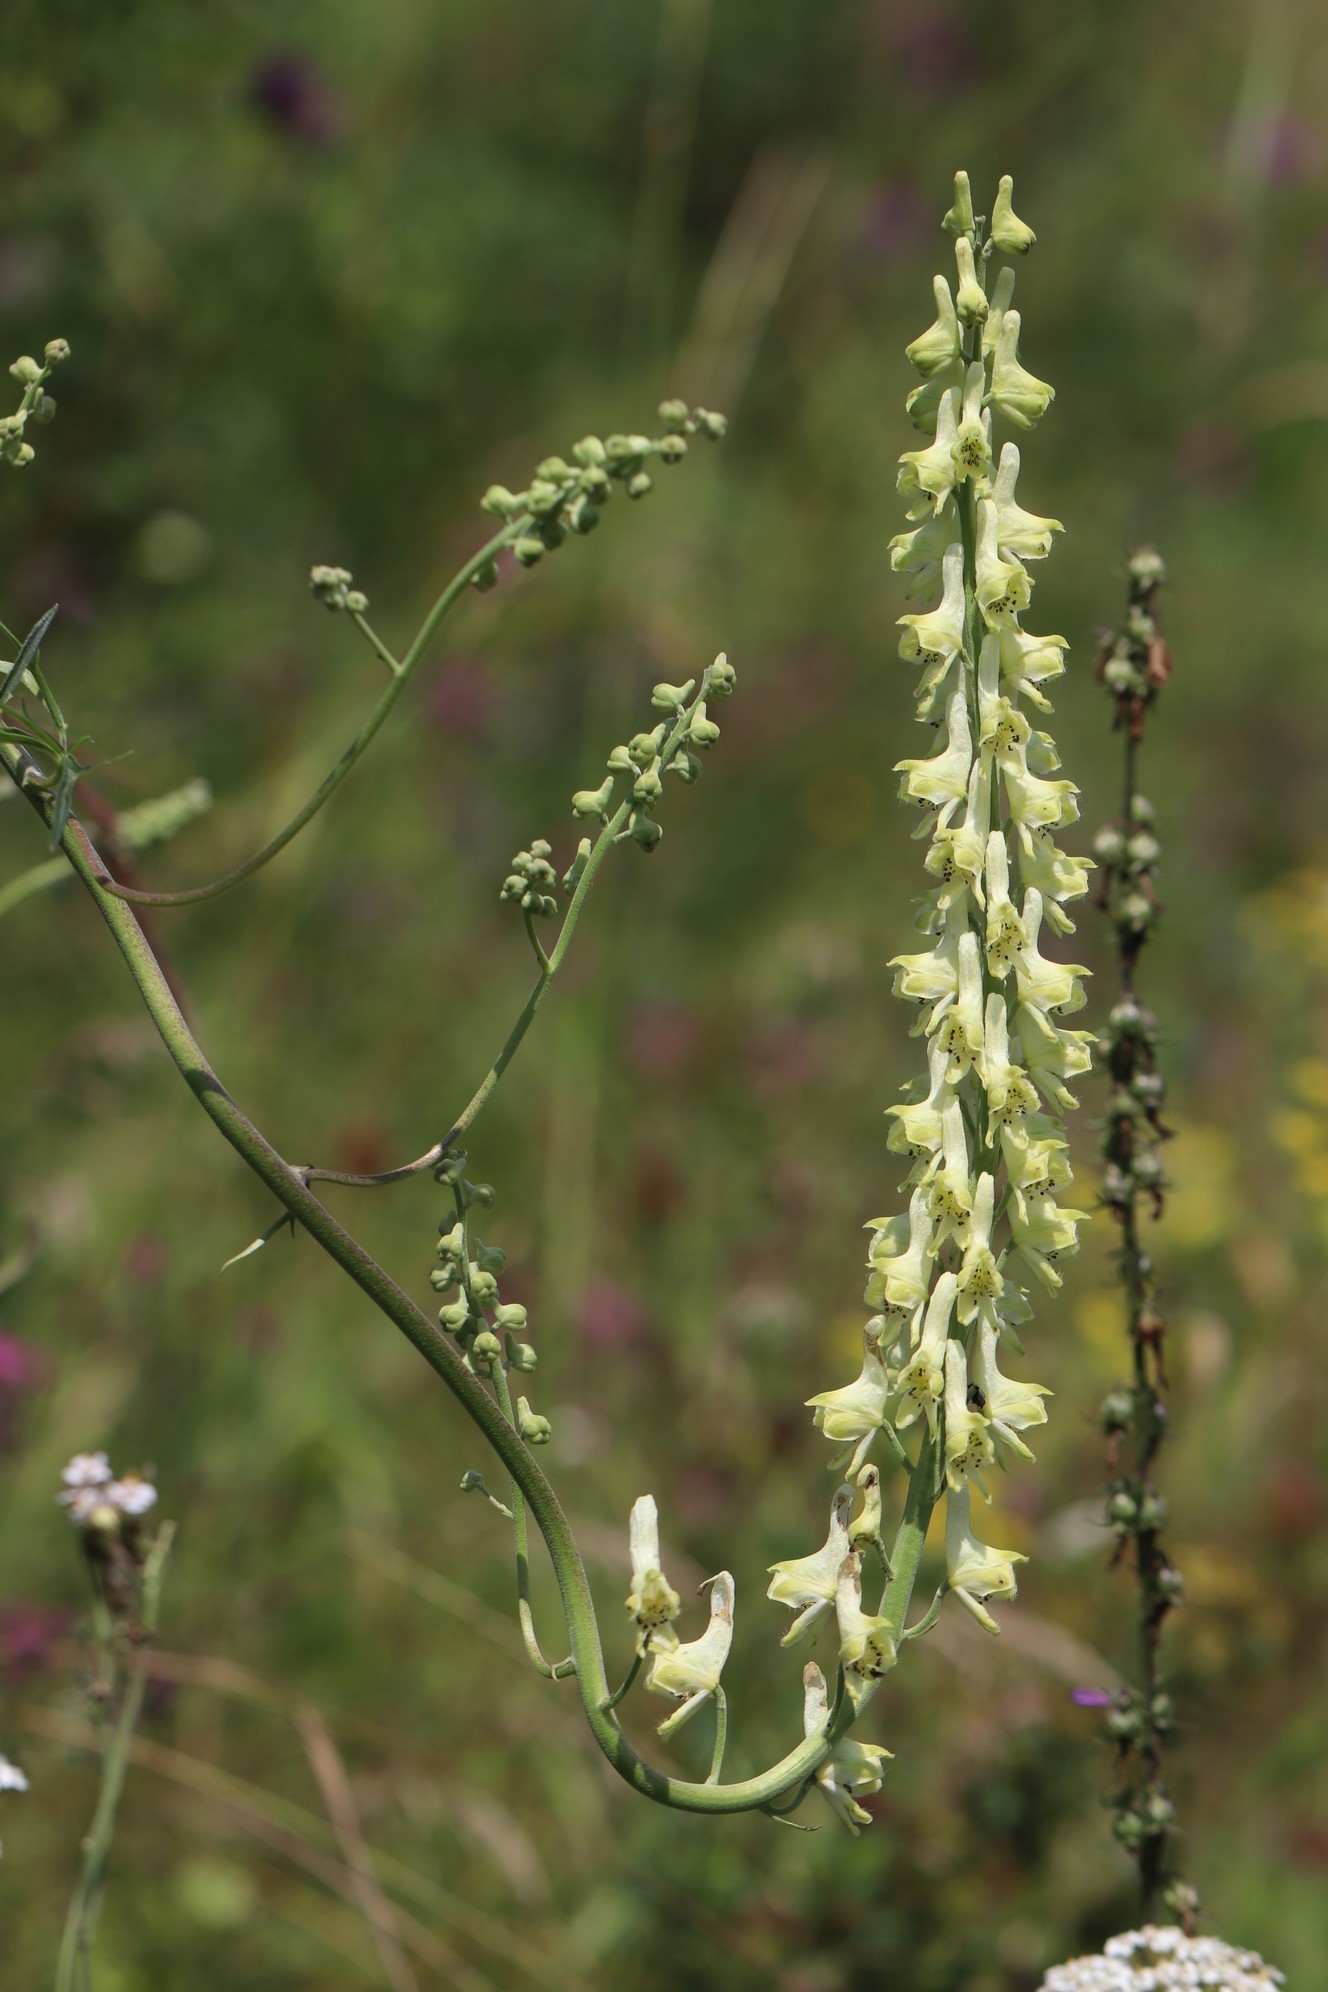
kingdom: Plantae
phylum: Tracheophyta
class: Magnoliopsida
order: Ranunculales
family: Ranunculaceae
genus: Aconitum
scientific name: Aconitum barbatum
